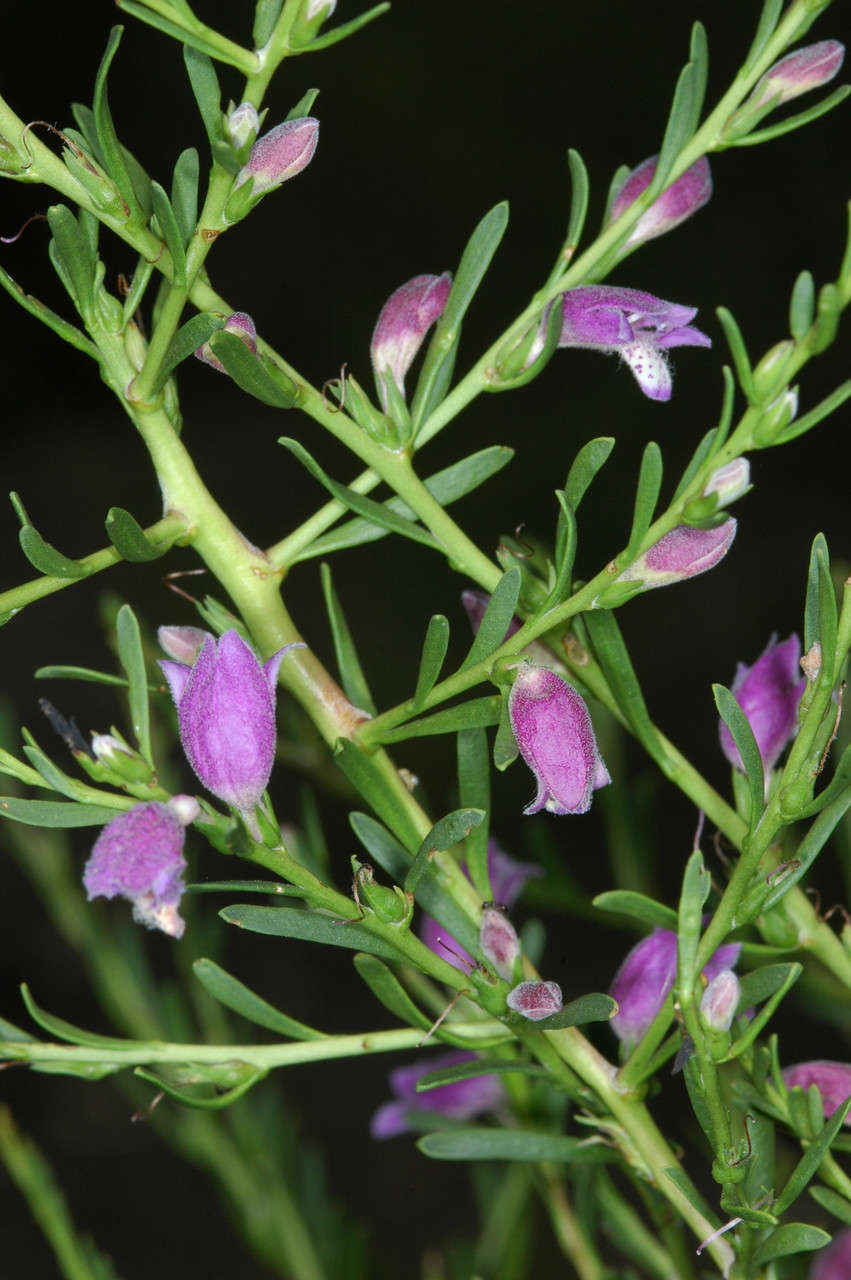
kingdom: Plantae
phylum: Tracheophyta
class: Magnoliopsida
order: Lamiales
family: Scrophulariaceae
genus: Eremophila
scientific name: Eremophila divaricata
